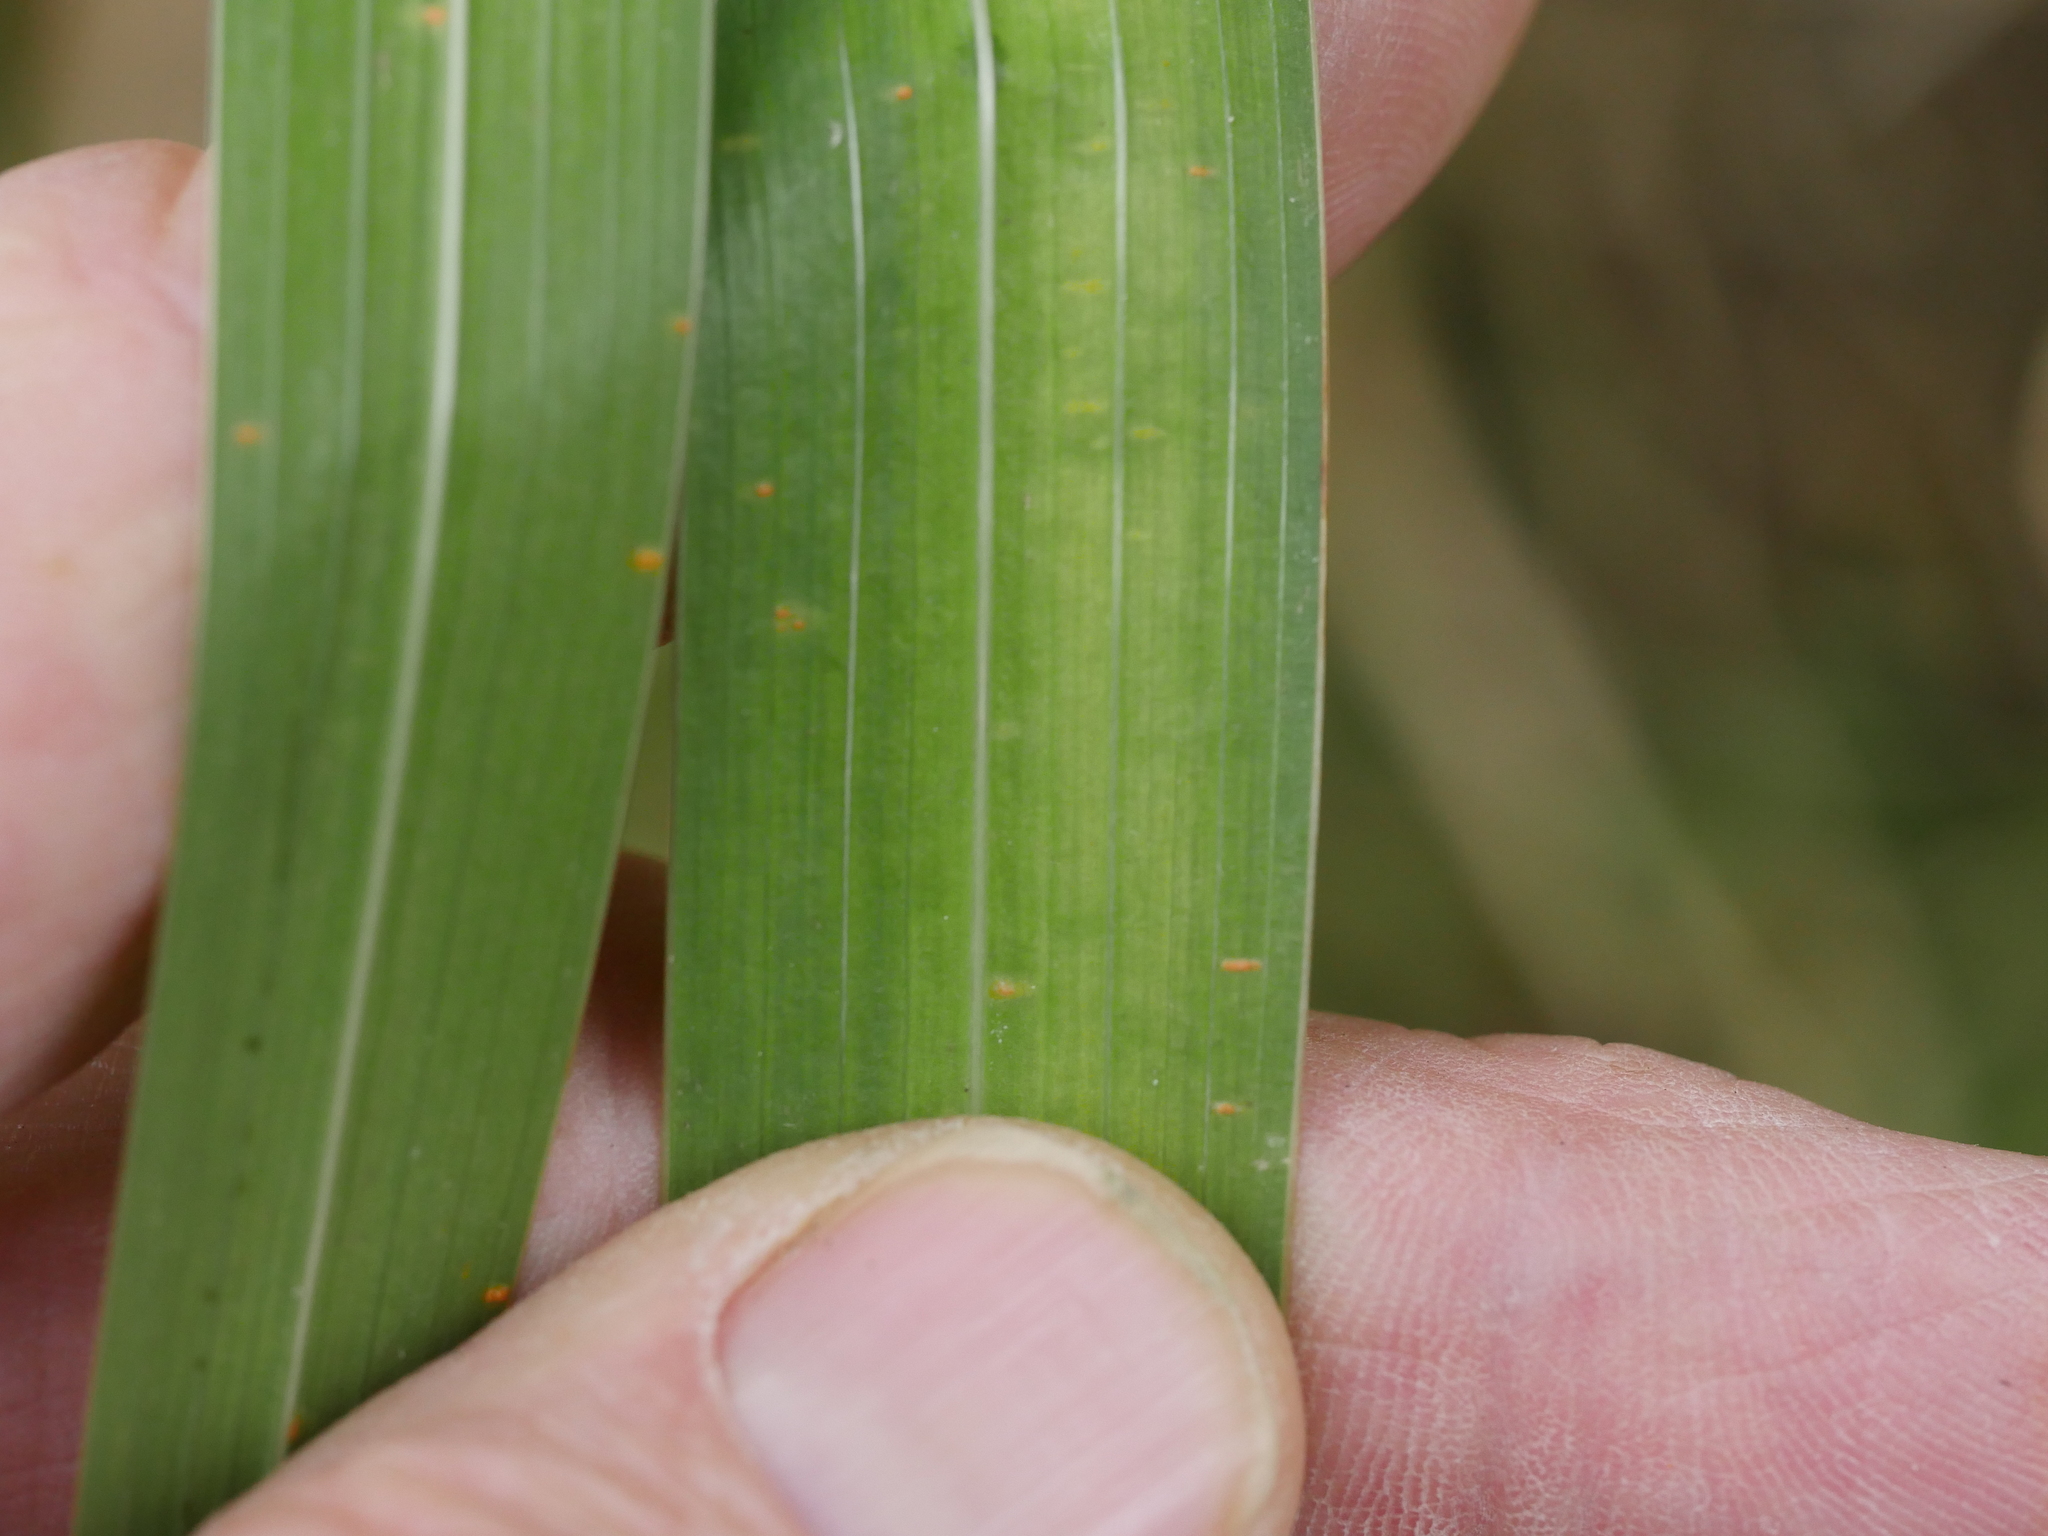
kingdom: Plantae
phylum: Tracheophyta
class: Liliopsida
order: Asparagales
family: Iridaceae
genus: Gladiolus
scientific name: Gladiolus undulatus
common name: Large painted-lady
